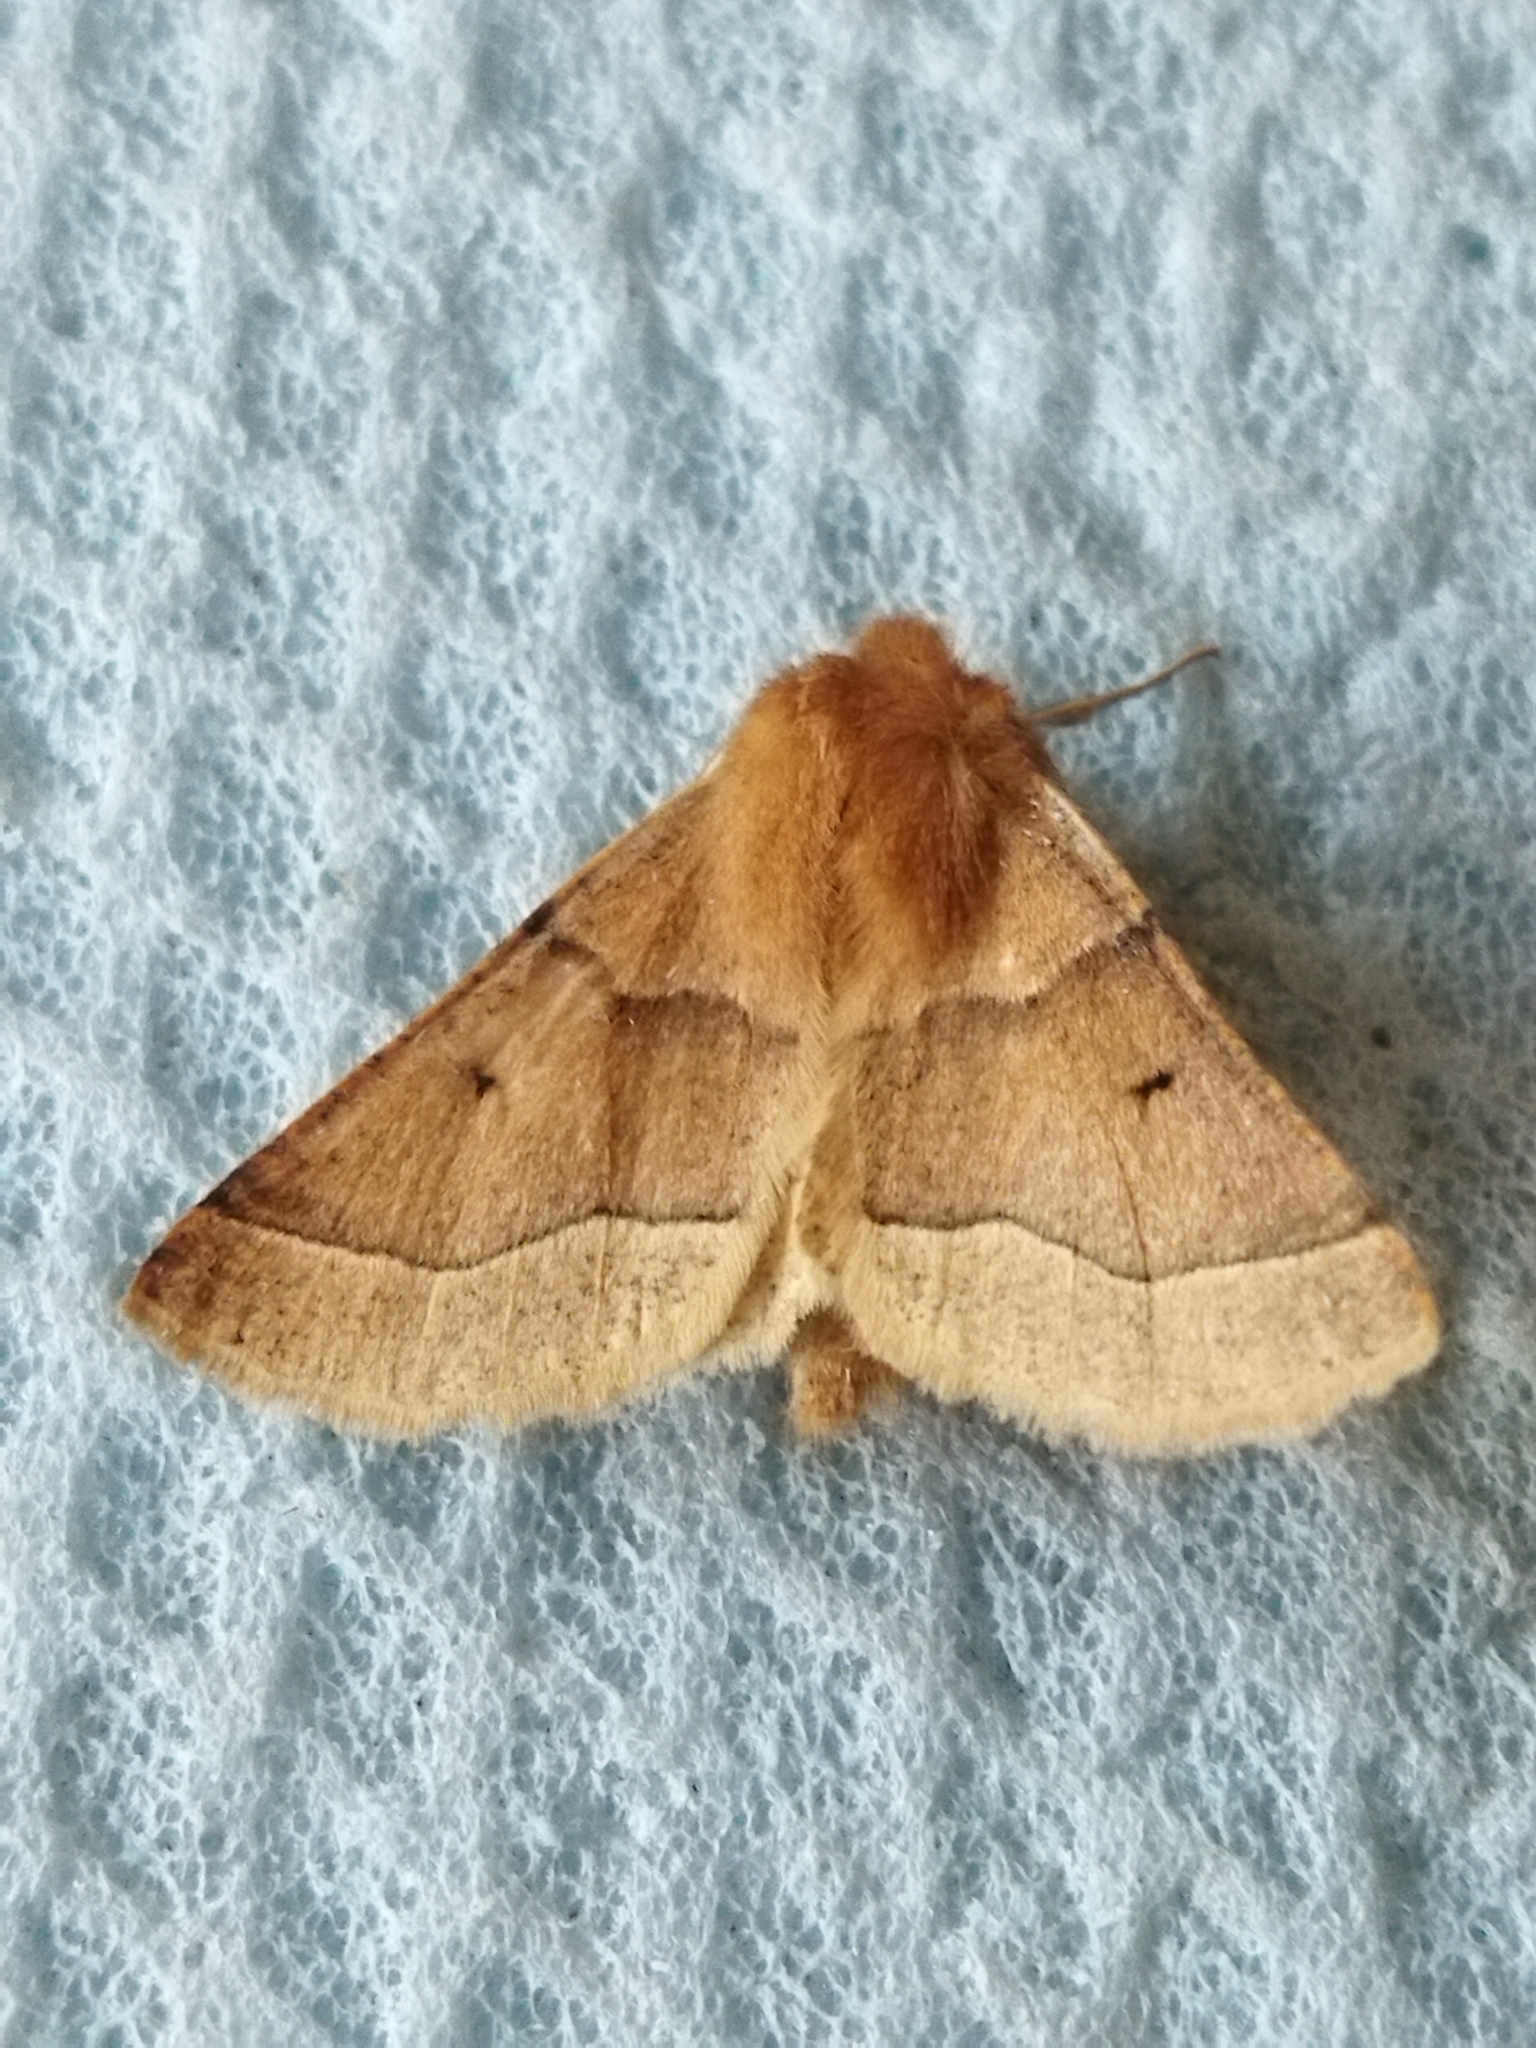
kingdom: Animalia
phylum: Arthropoda
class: Insecta
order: Lepidoptera
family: Geometridae
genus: Crocallis
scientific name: Crocallis tusciaria
